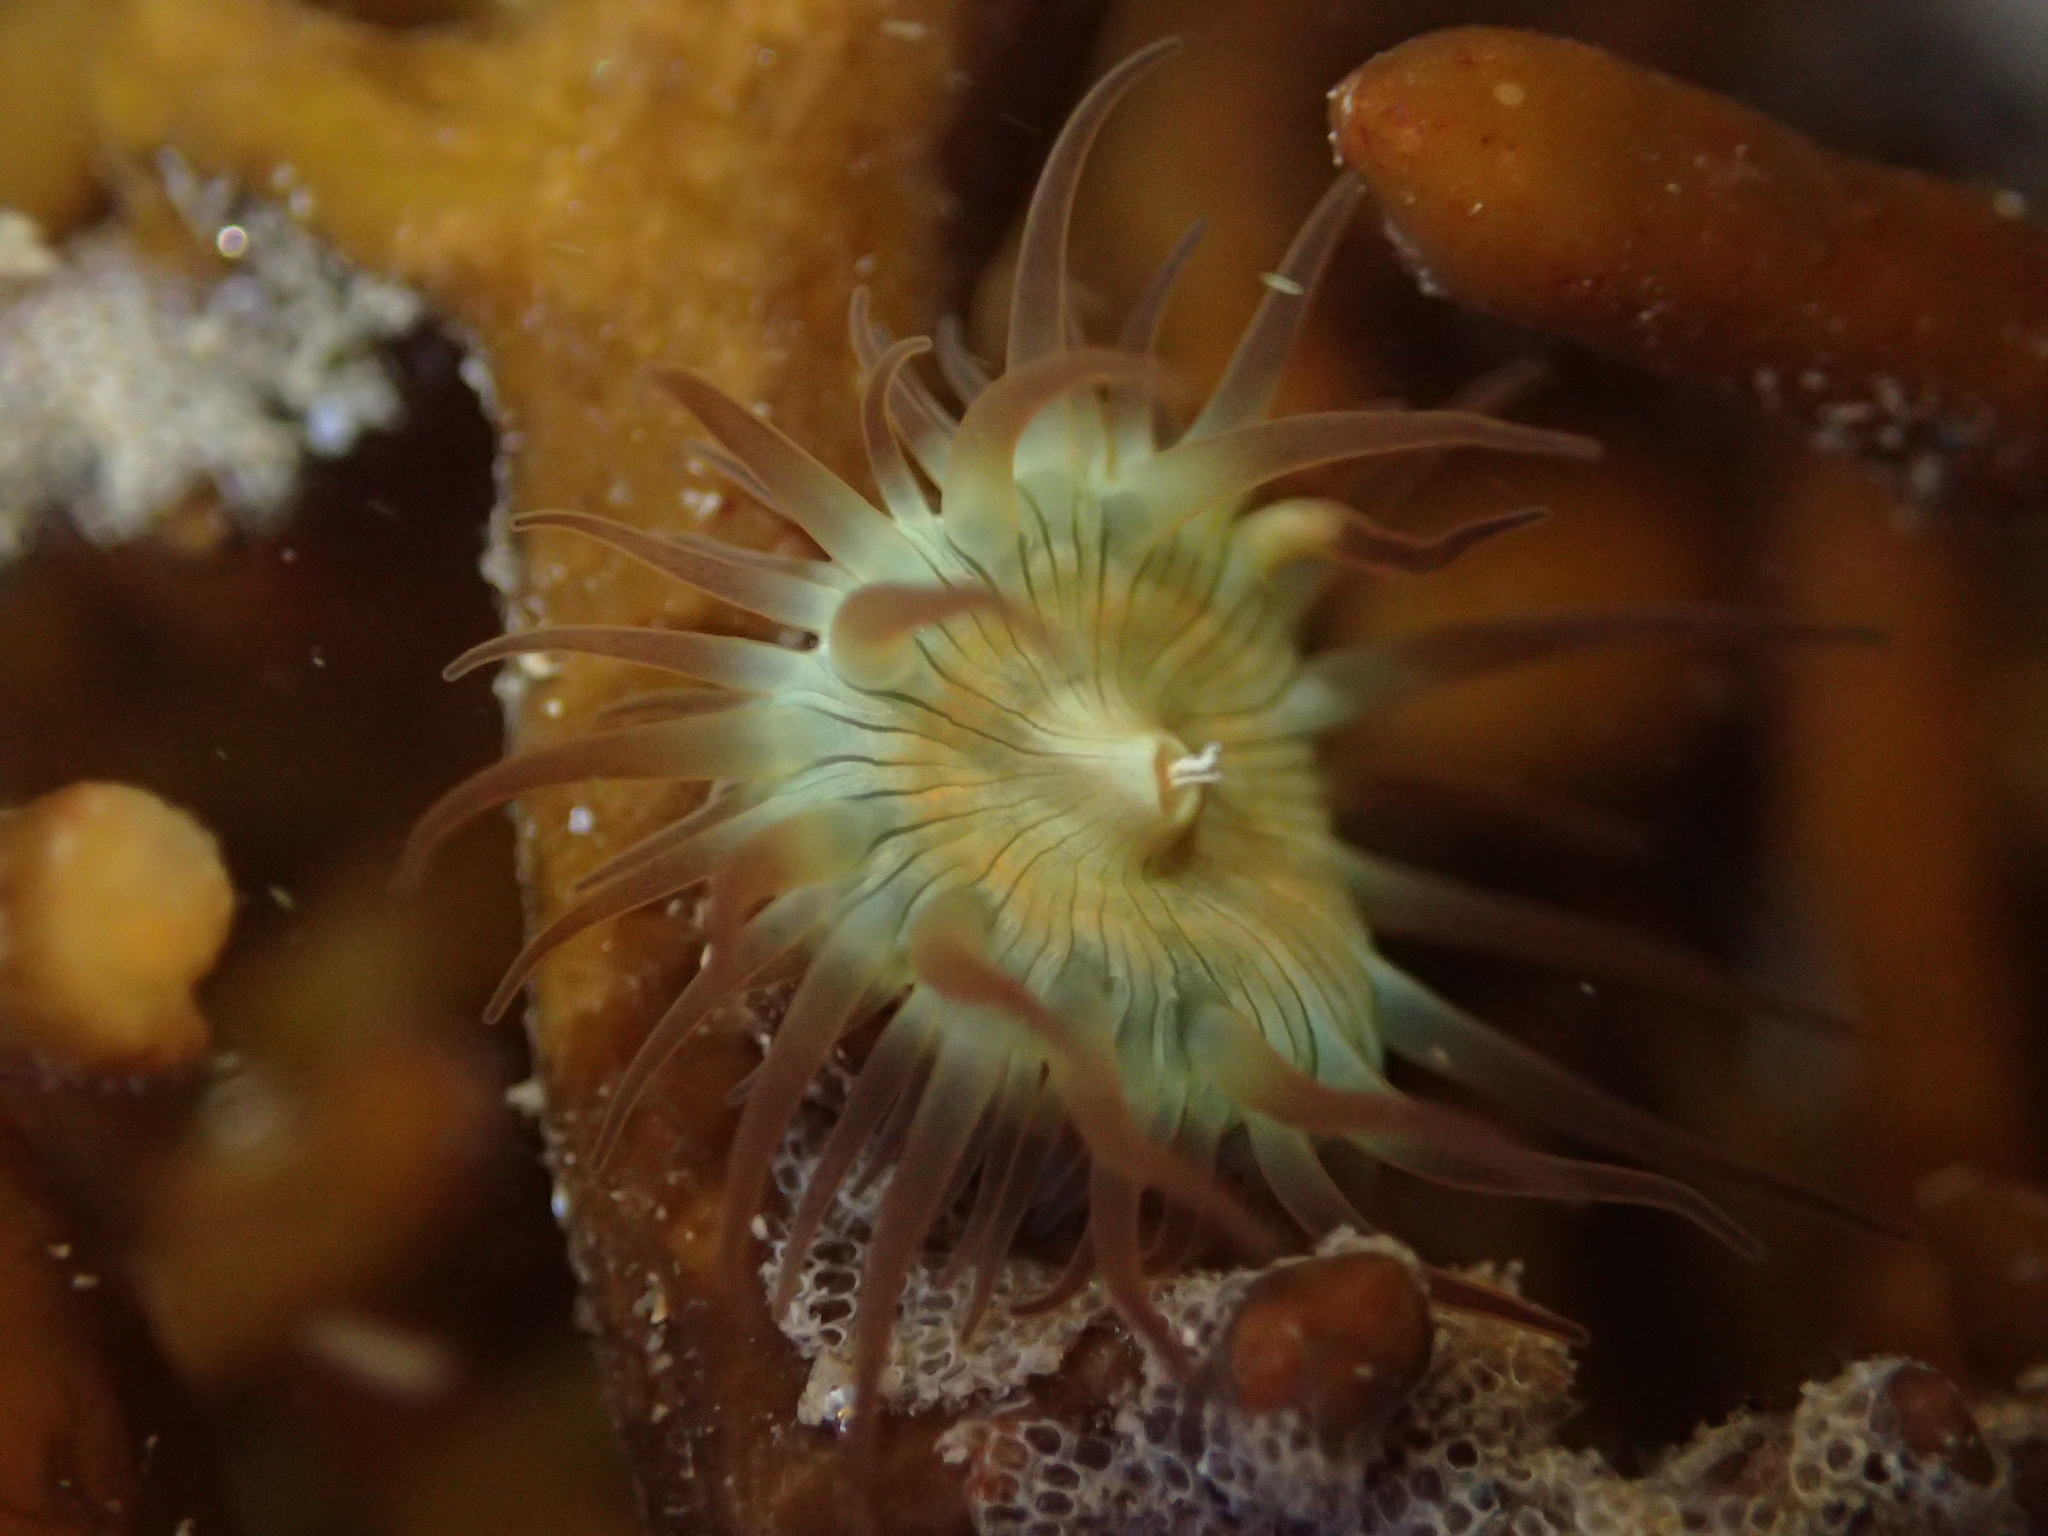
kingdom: Animalia
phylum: Cnidaria
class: Anthozoa
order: Actiniaria
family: Hormathiidae
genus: Handactis
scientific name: Handactis nutrix
